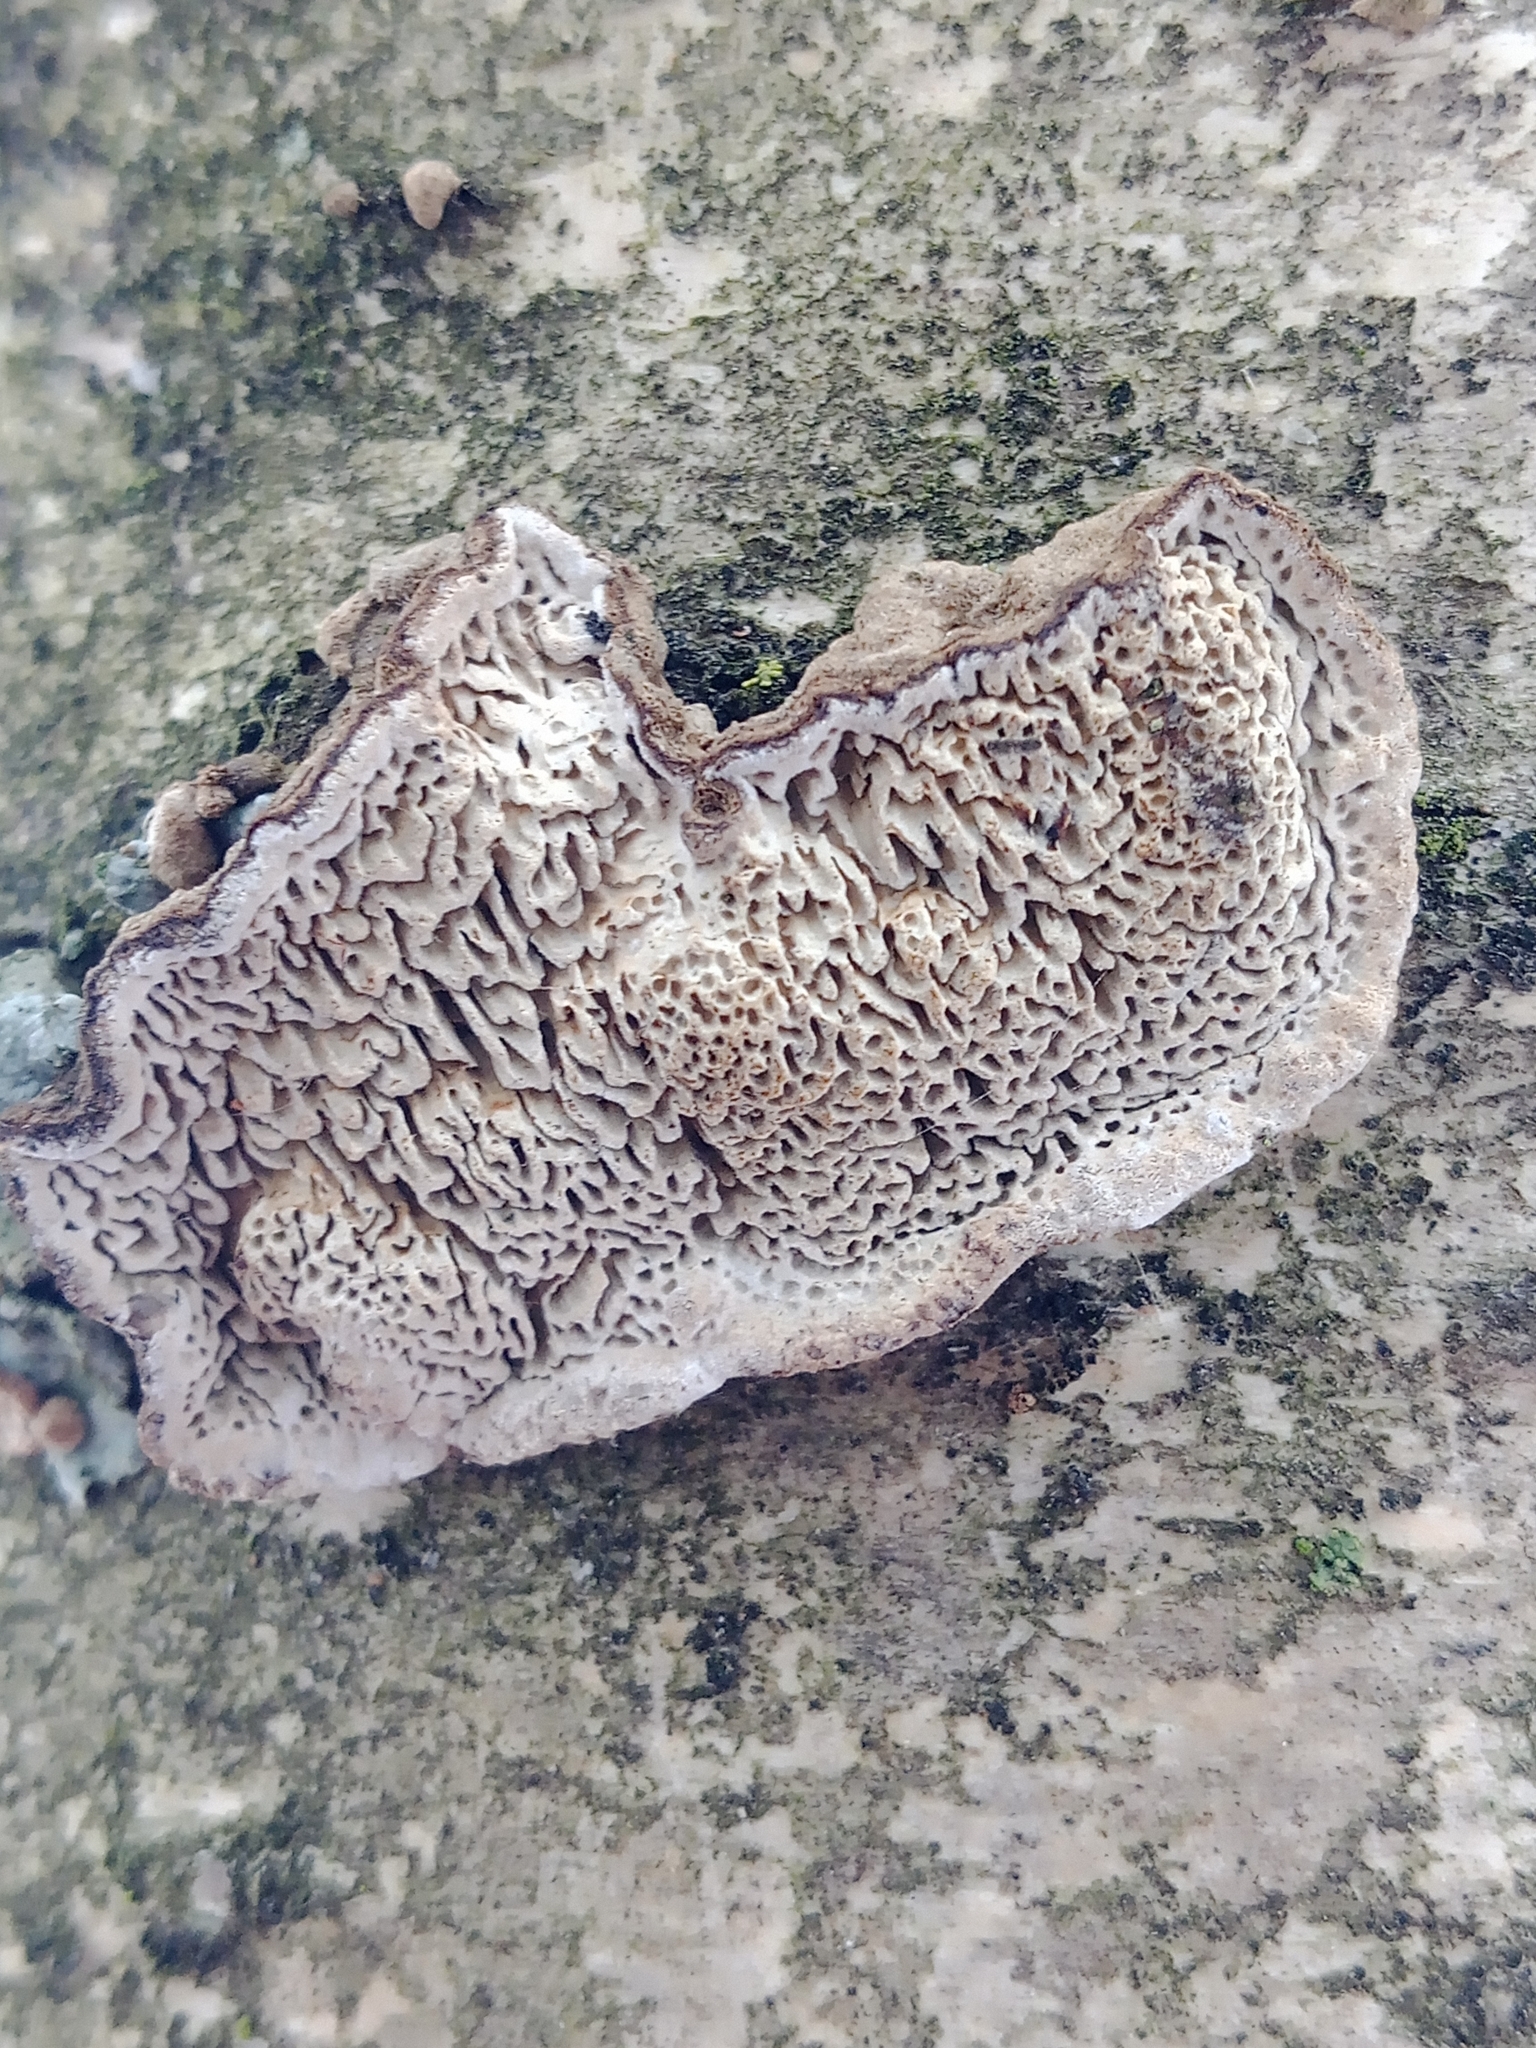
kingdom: Fungi
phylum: Basidiomycota
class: Agaricomycetes
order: Polyporales
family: Polyporaceae
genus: Podofomes
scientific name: Podofomes mollis
